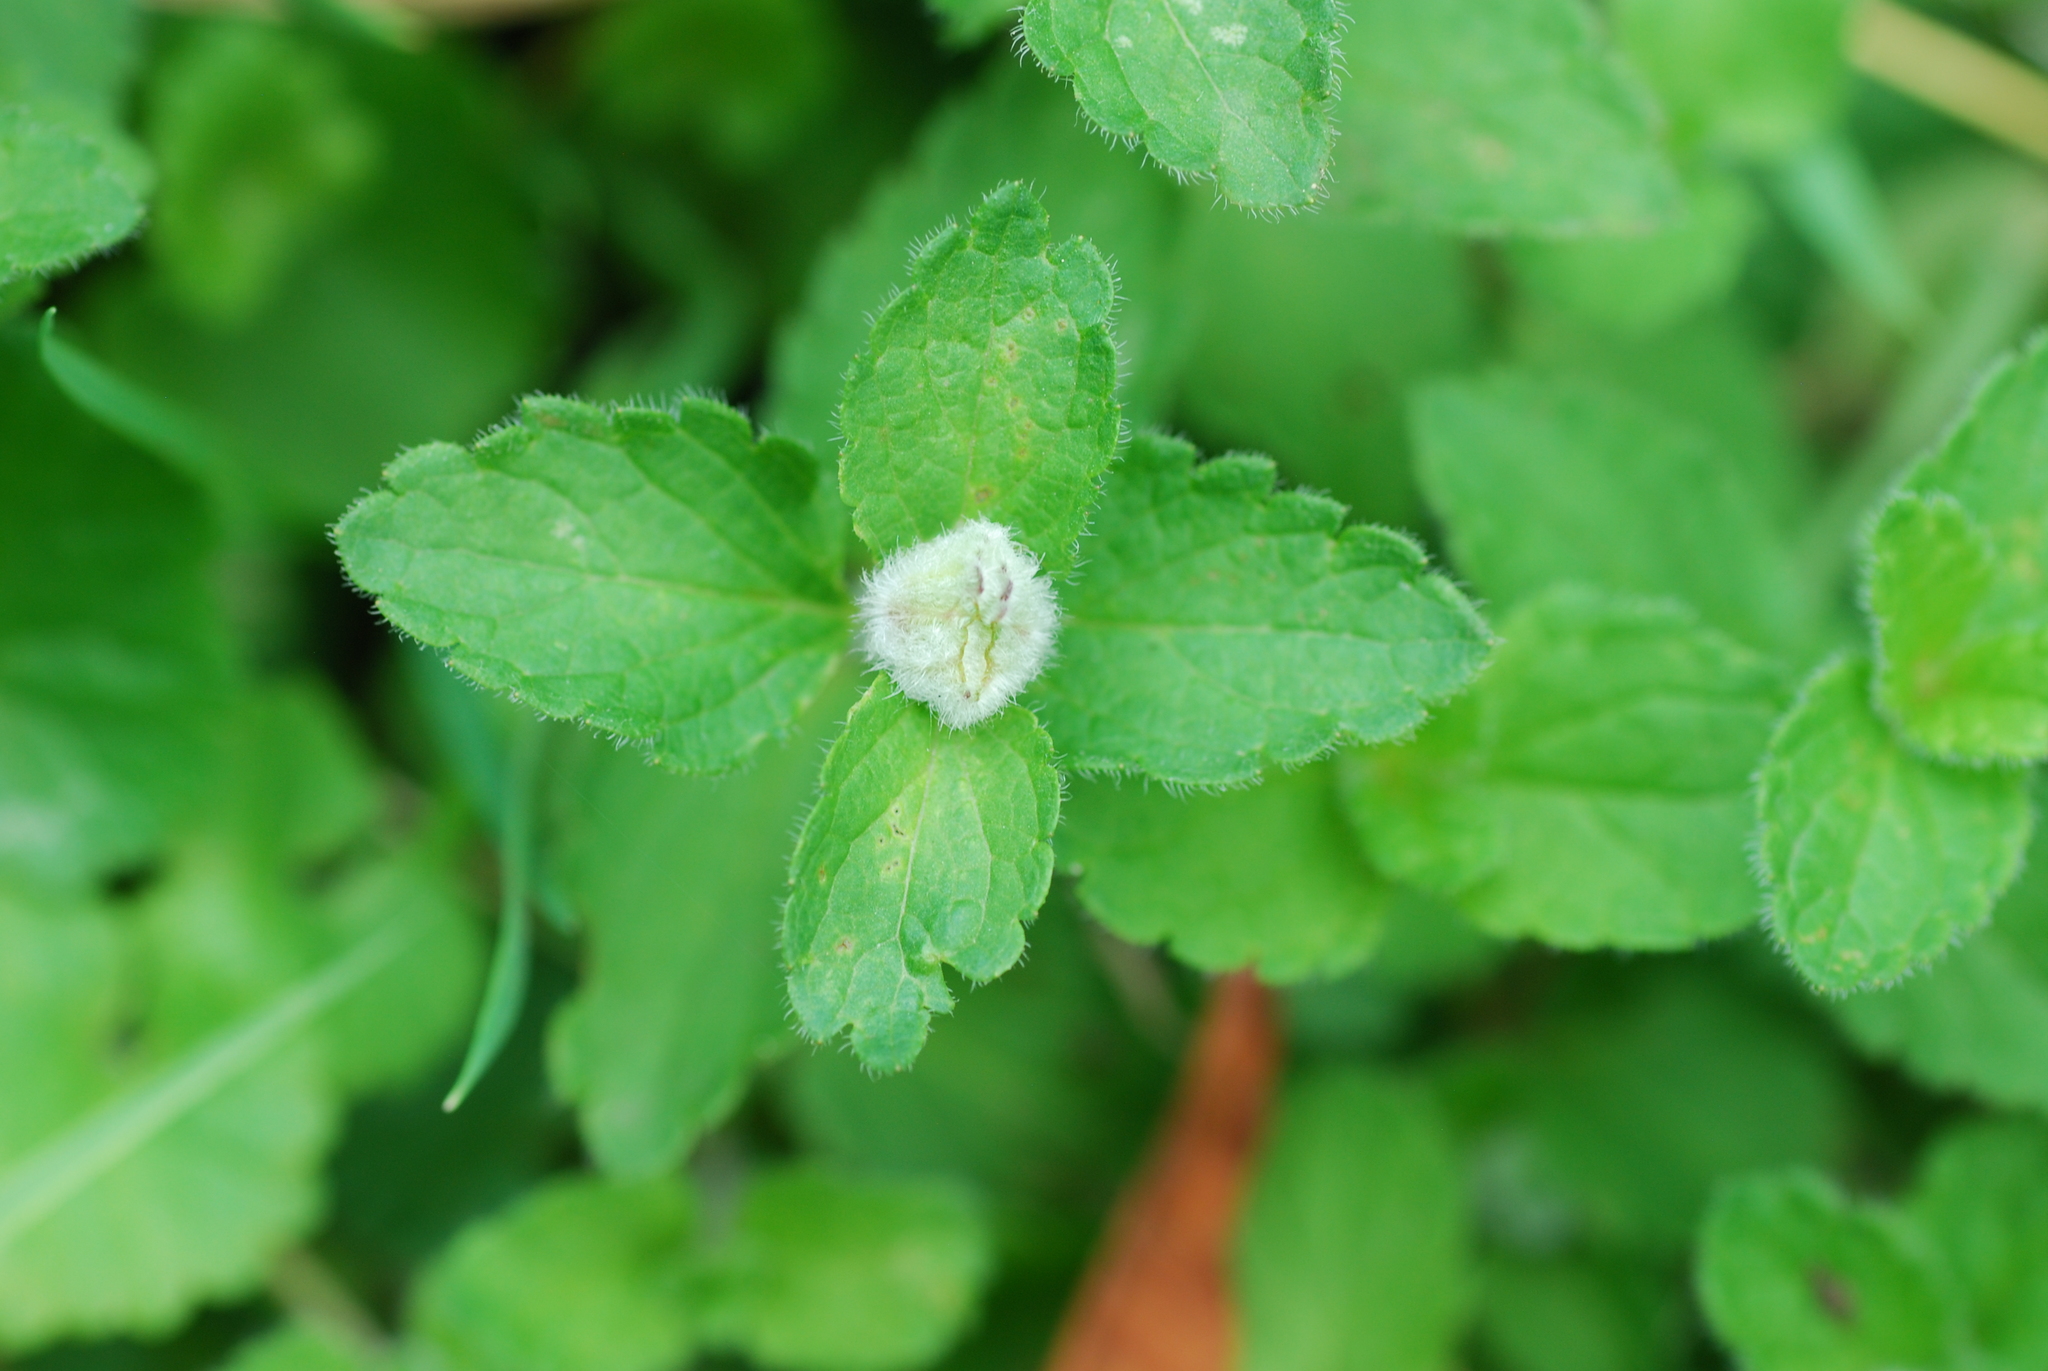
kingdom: Animalia
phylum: Arthropoda
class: Insecta
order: Diptera
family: Cecidomyiidae
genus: Jaapiella
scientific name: Jaapiella veronicae
